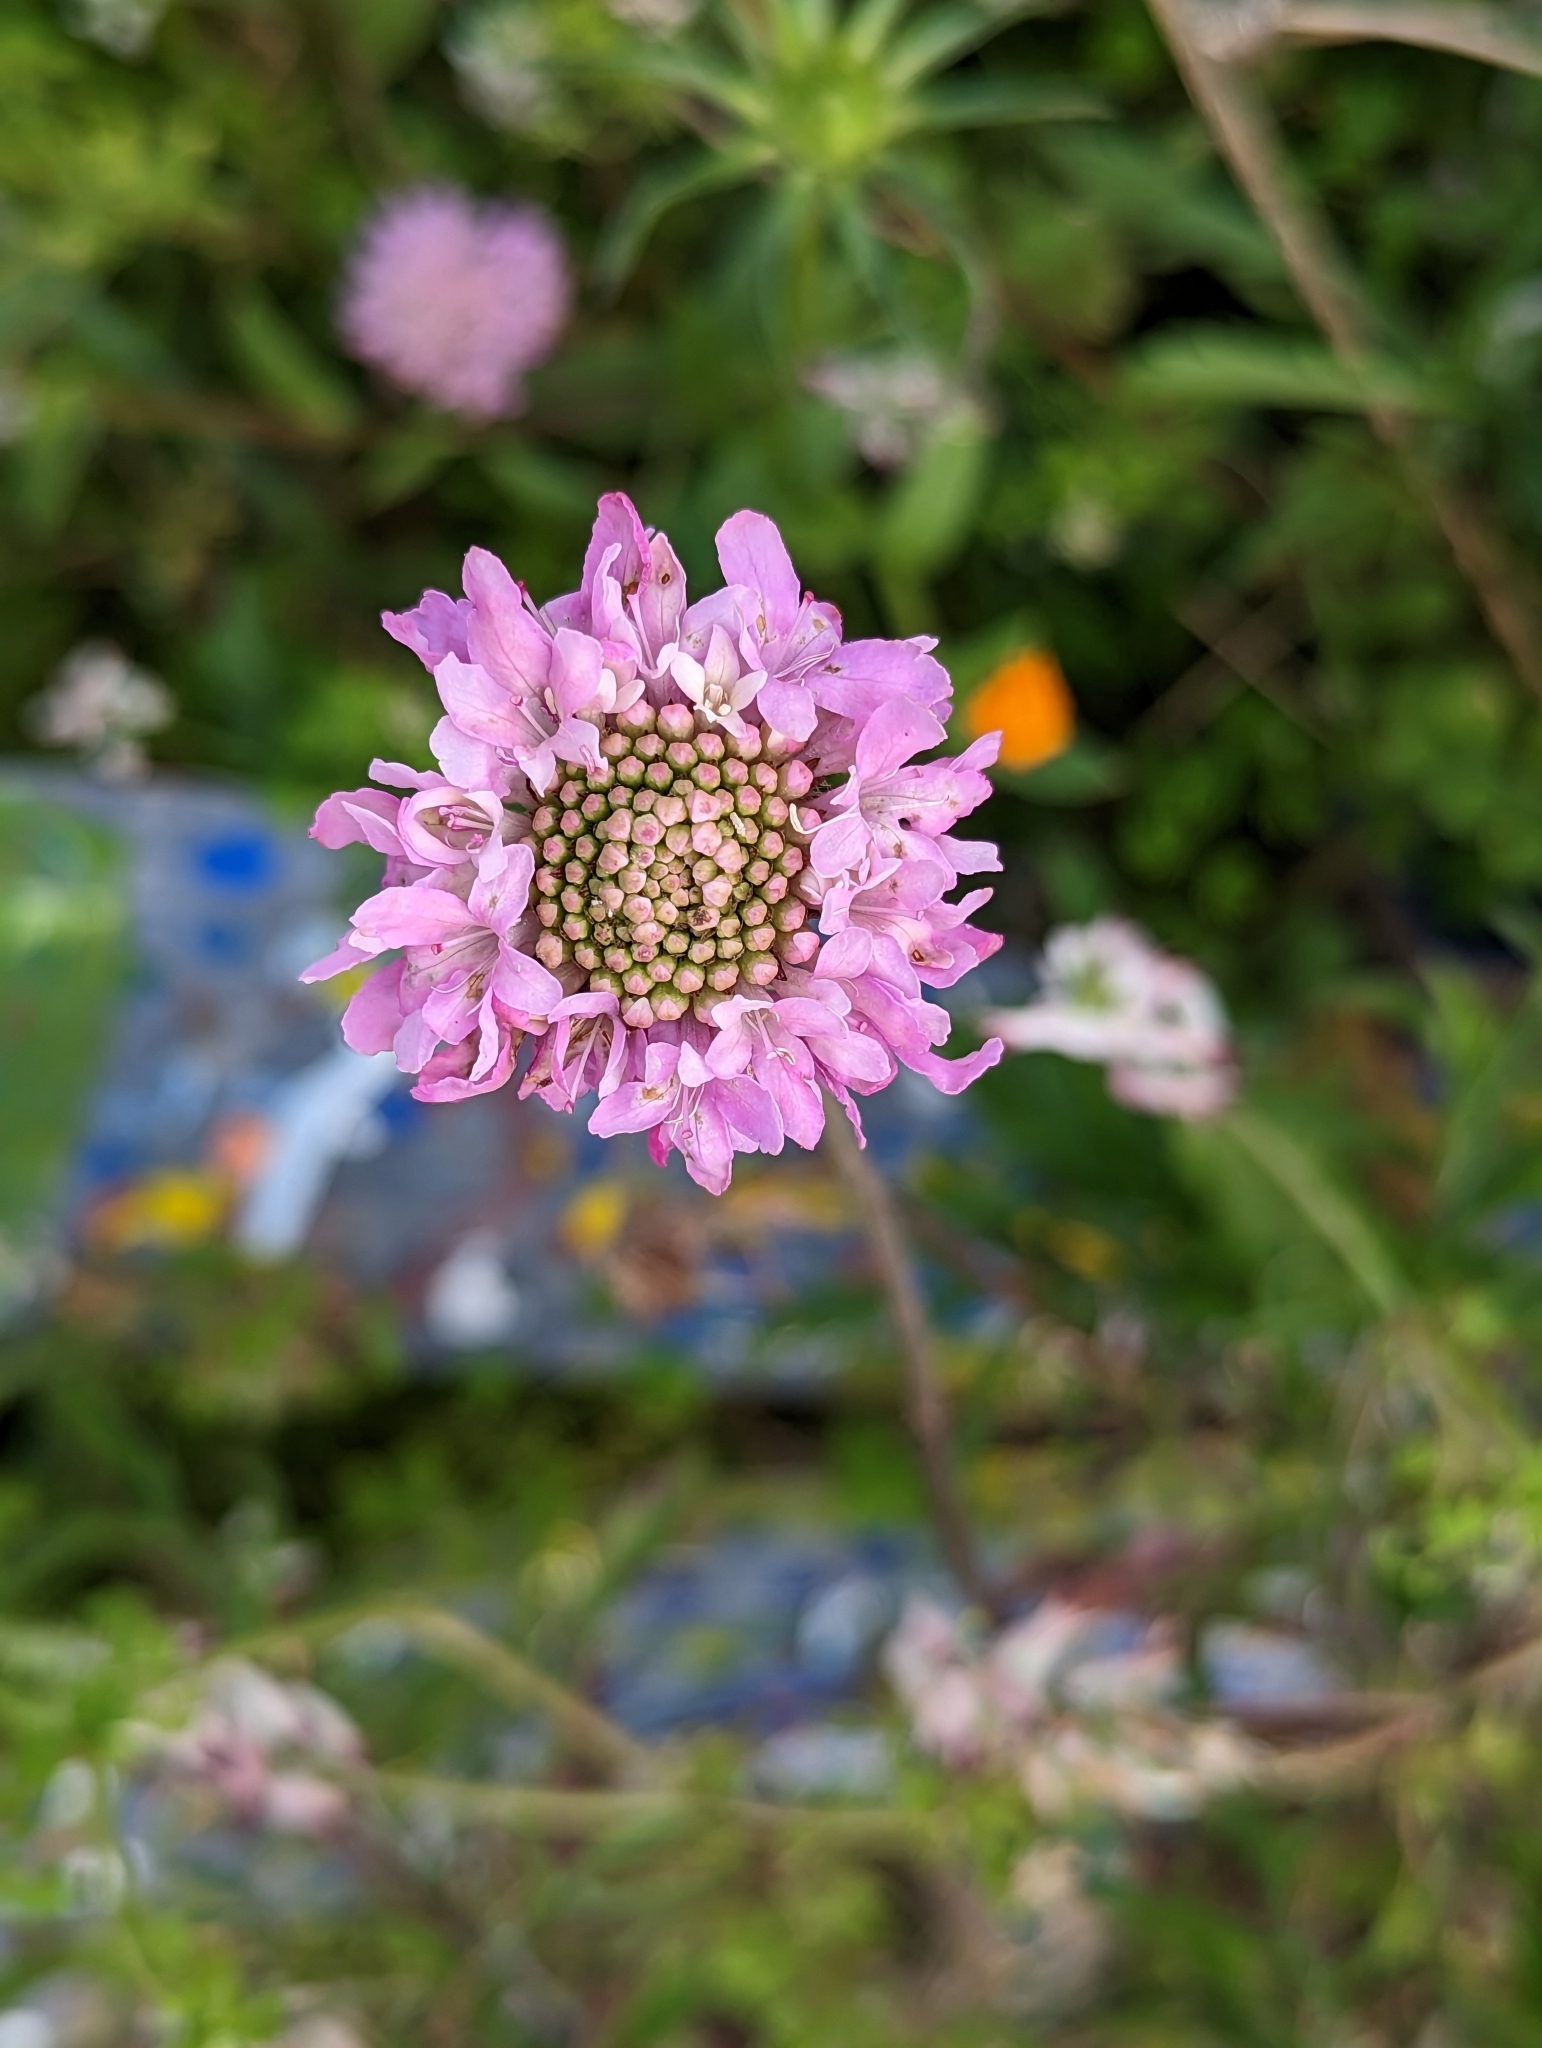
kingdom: Plantae
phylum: Tracheophyta
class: Magnoliopsida
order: Dipsacales
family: Caprifoliaceae
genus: Sixalix
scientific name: Sixalix atropurpurea
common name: Sweet scabious
